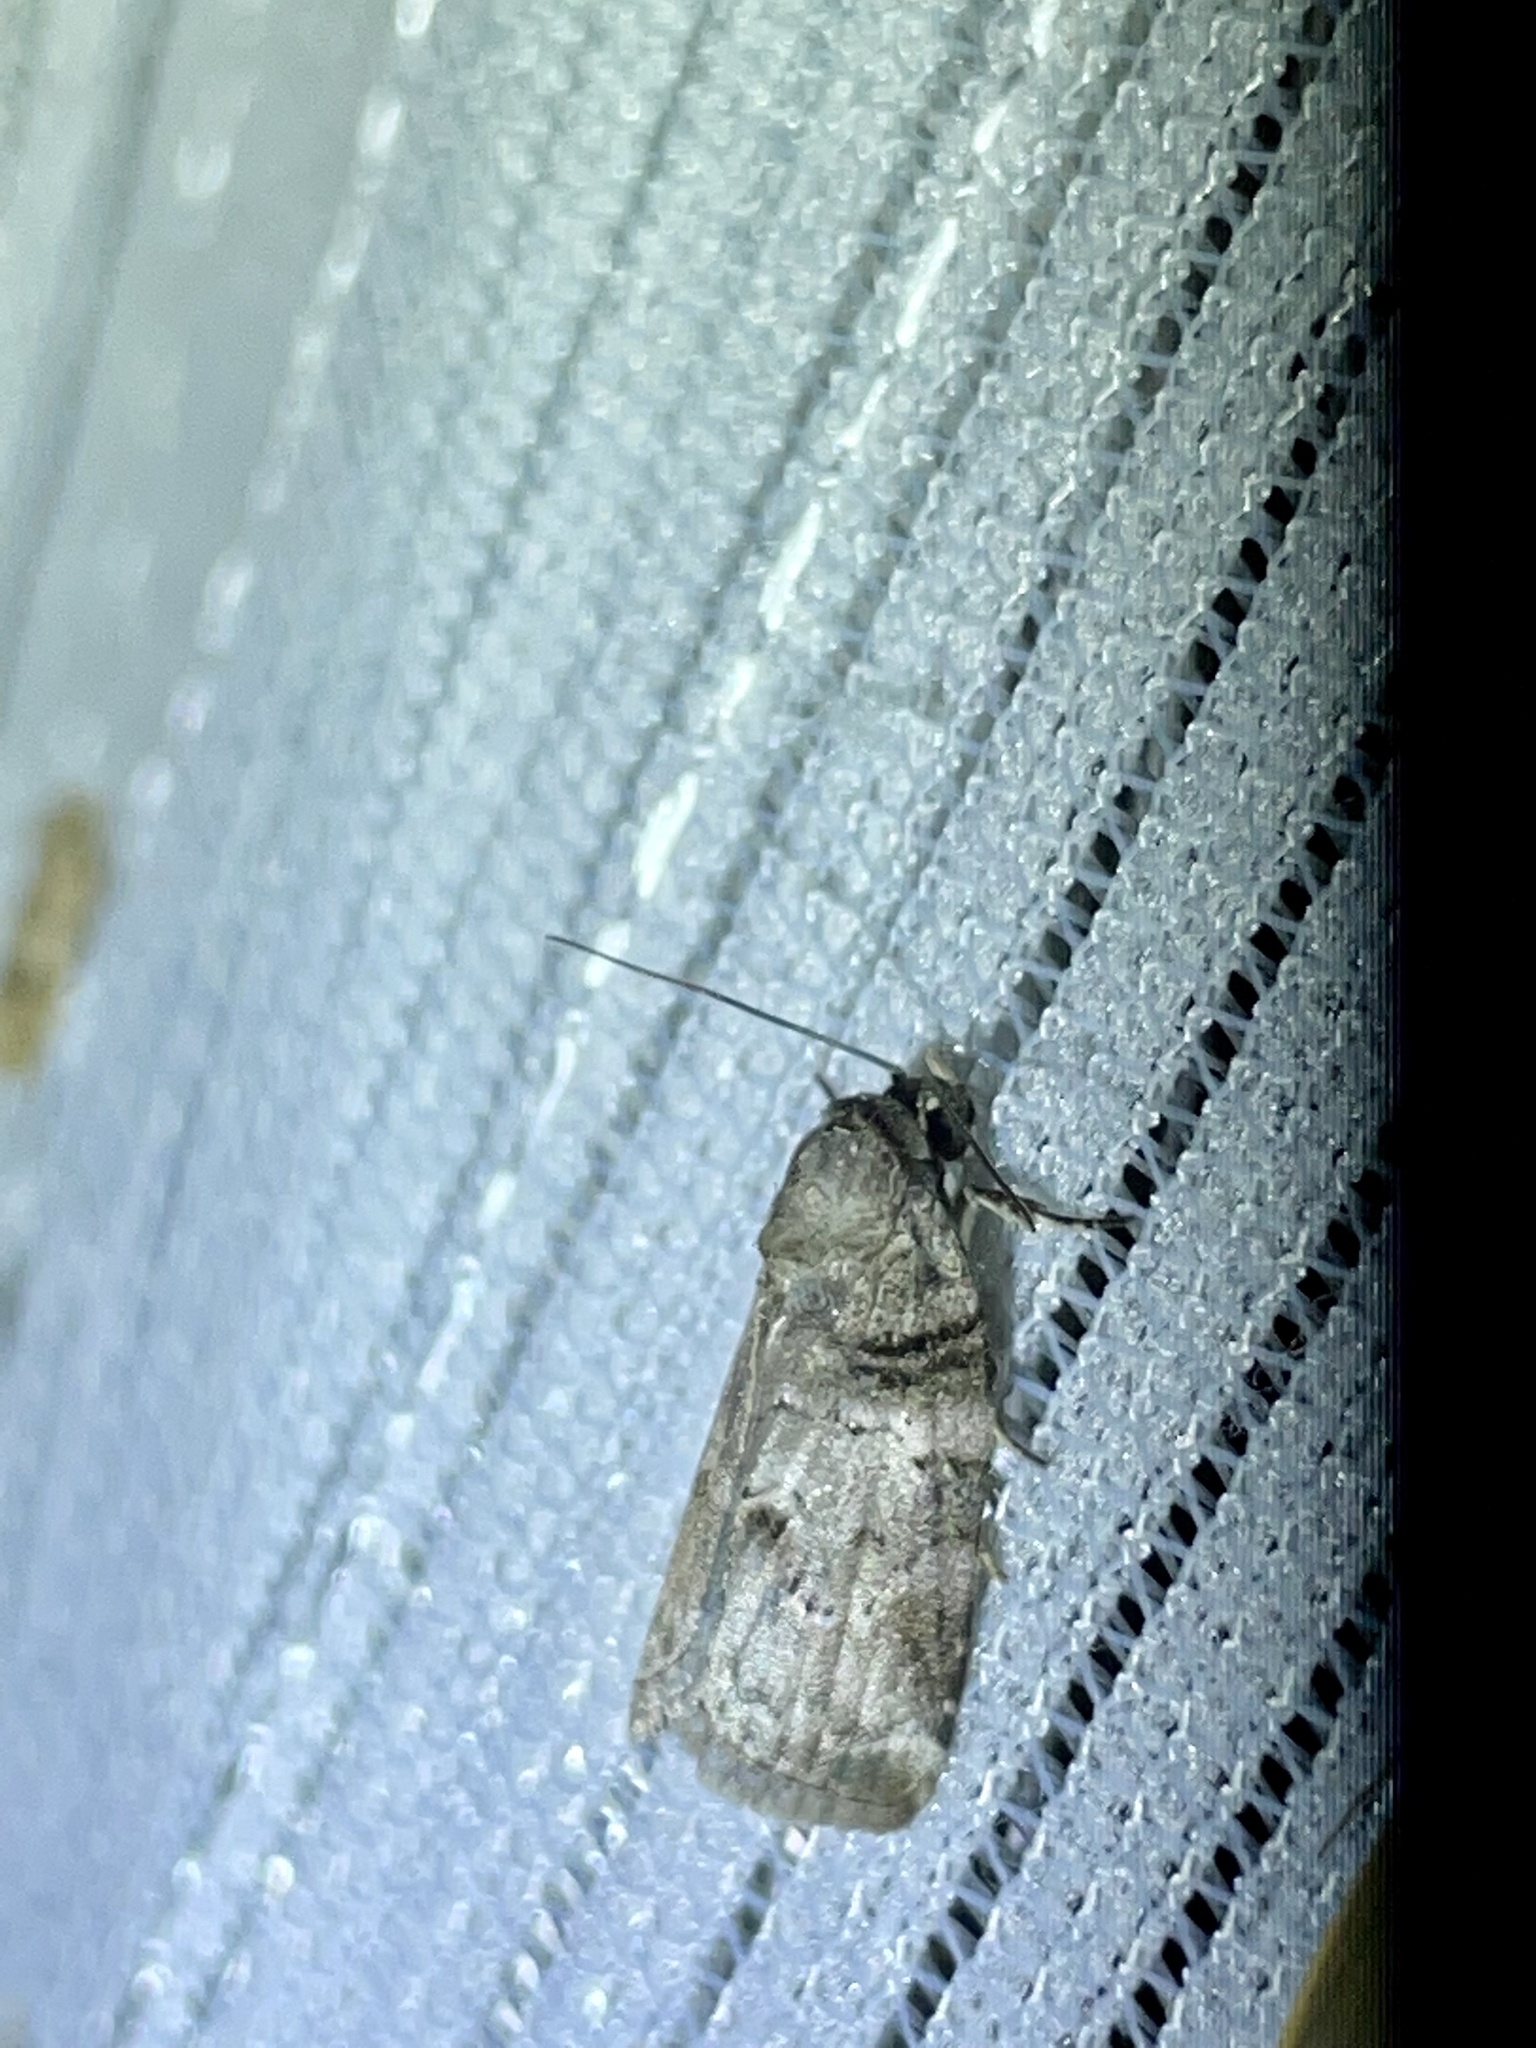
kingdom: Animalia
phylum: Arthropoda
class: Insecta
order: Lepidoptera
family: Nolidae
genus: Garella
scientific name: Garella ruficirra
